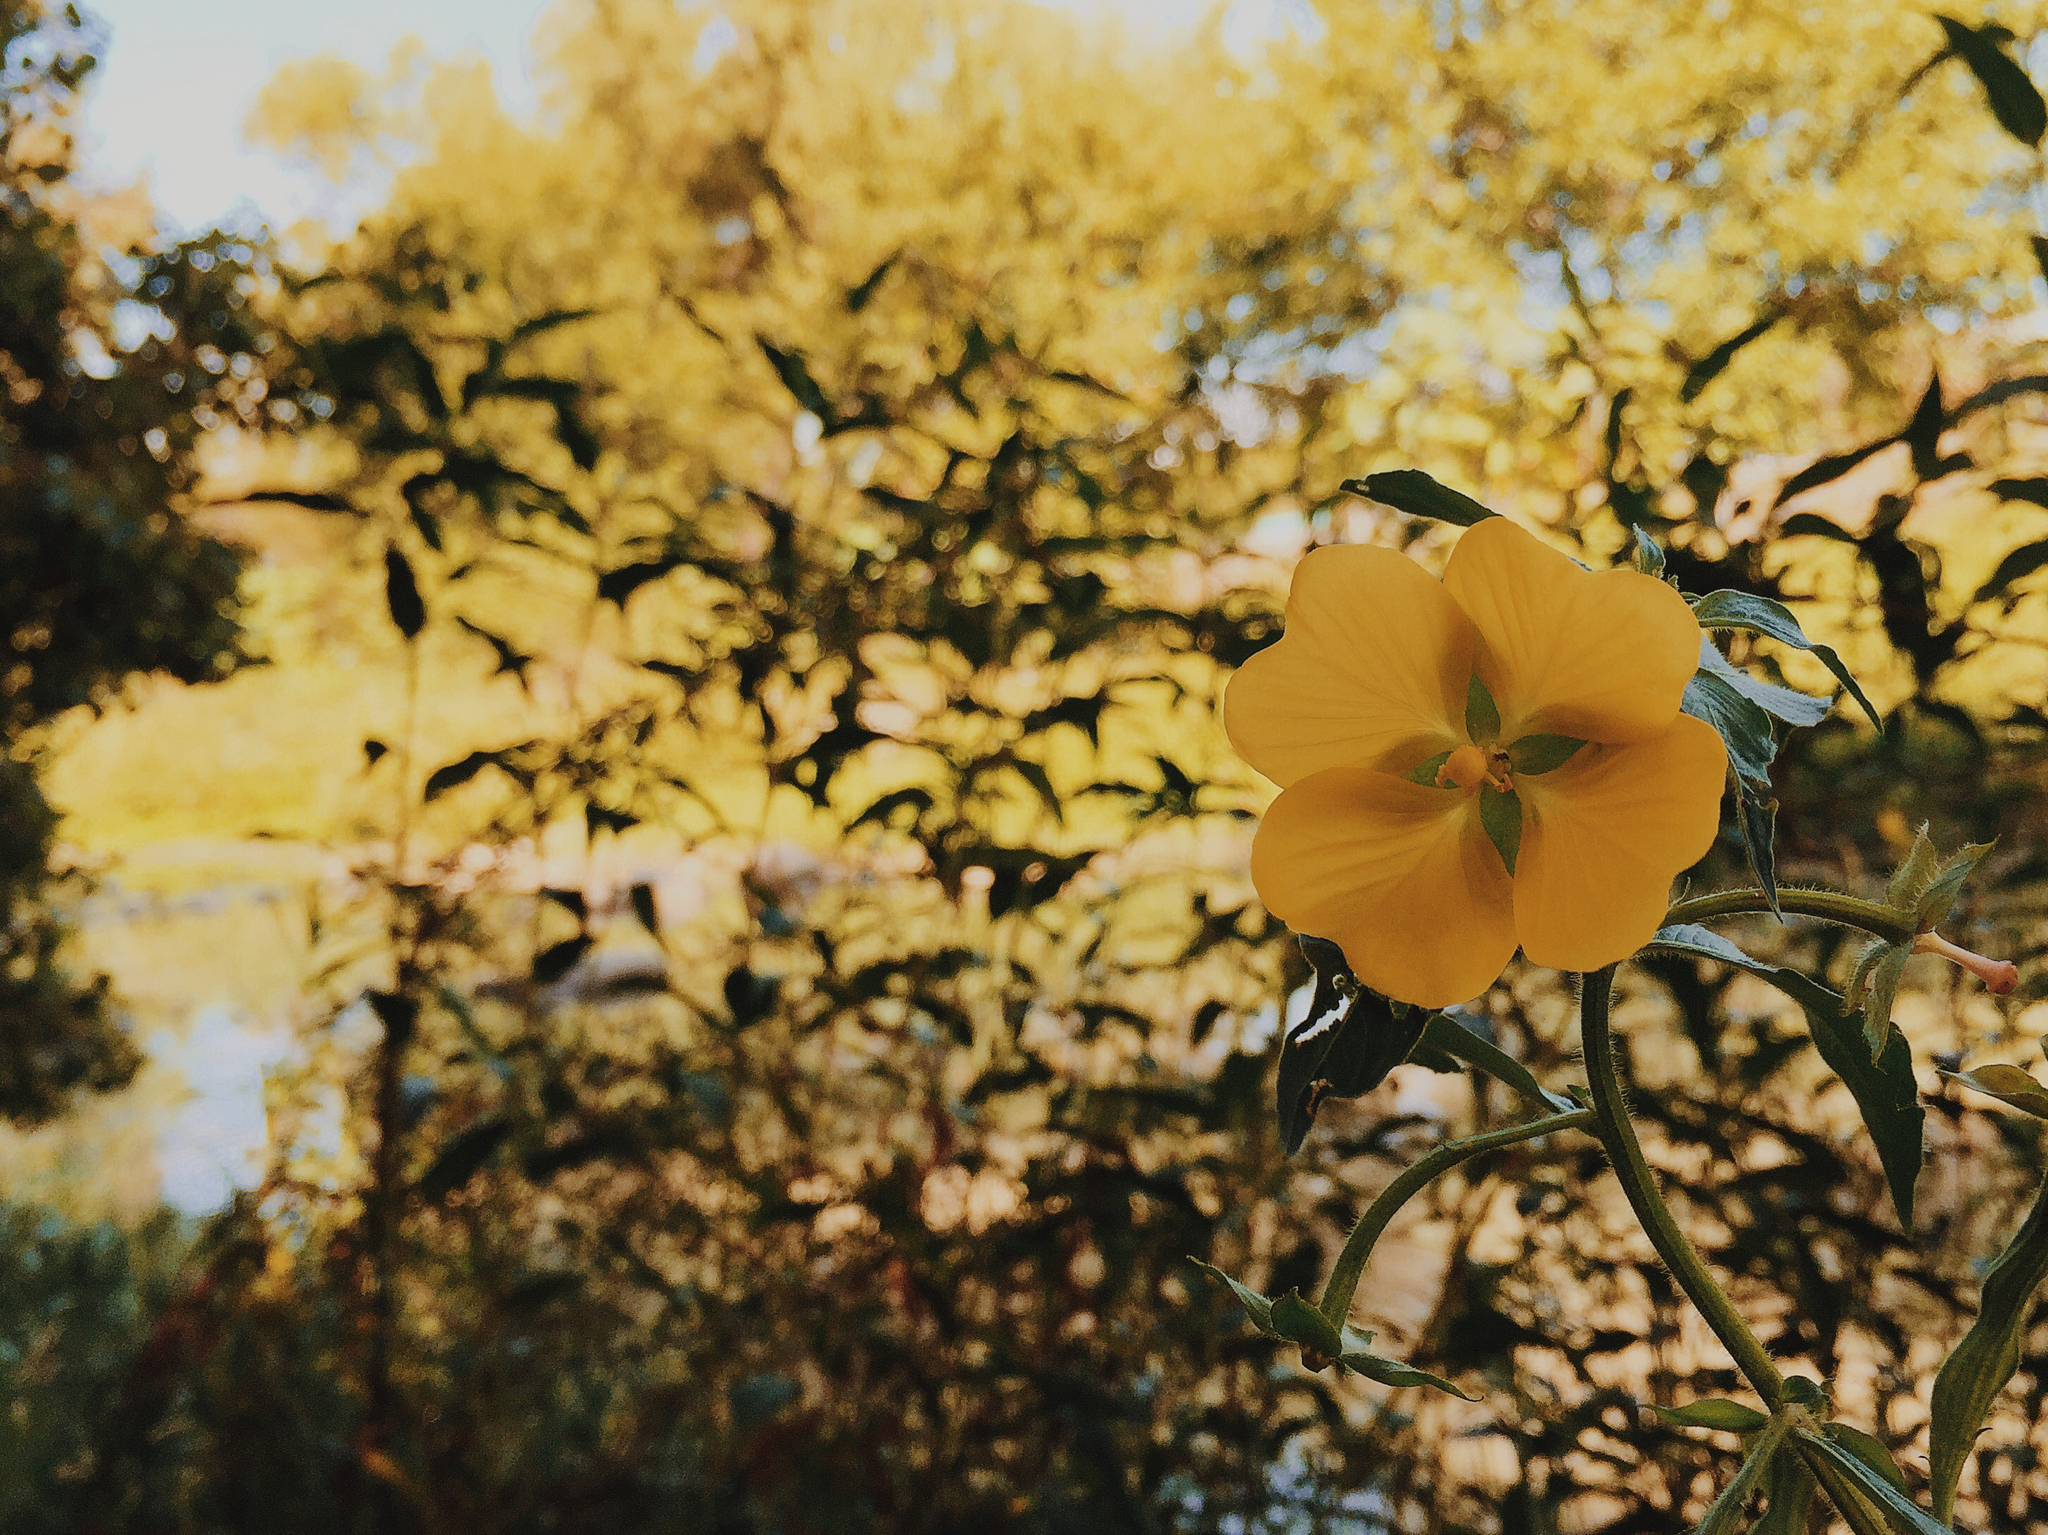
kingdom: Plantae
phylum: Tracheophyta
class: Magnoliopsida
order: Myrtales
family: Onagraceae
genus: Ludwigia
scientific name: Ludwigia octovalvis
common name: Water-primrose
